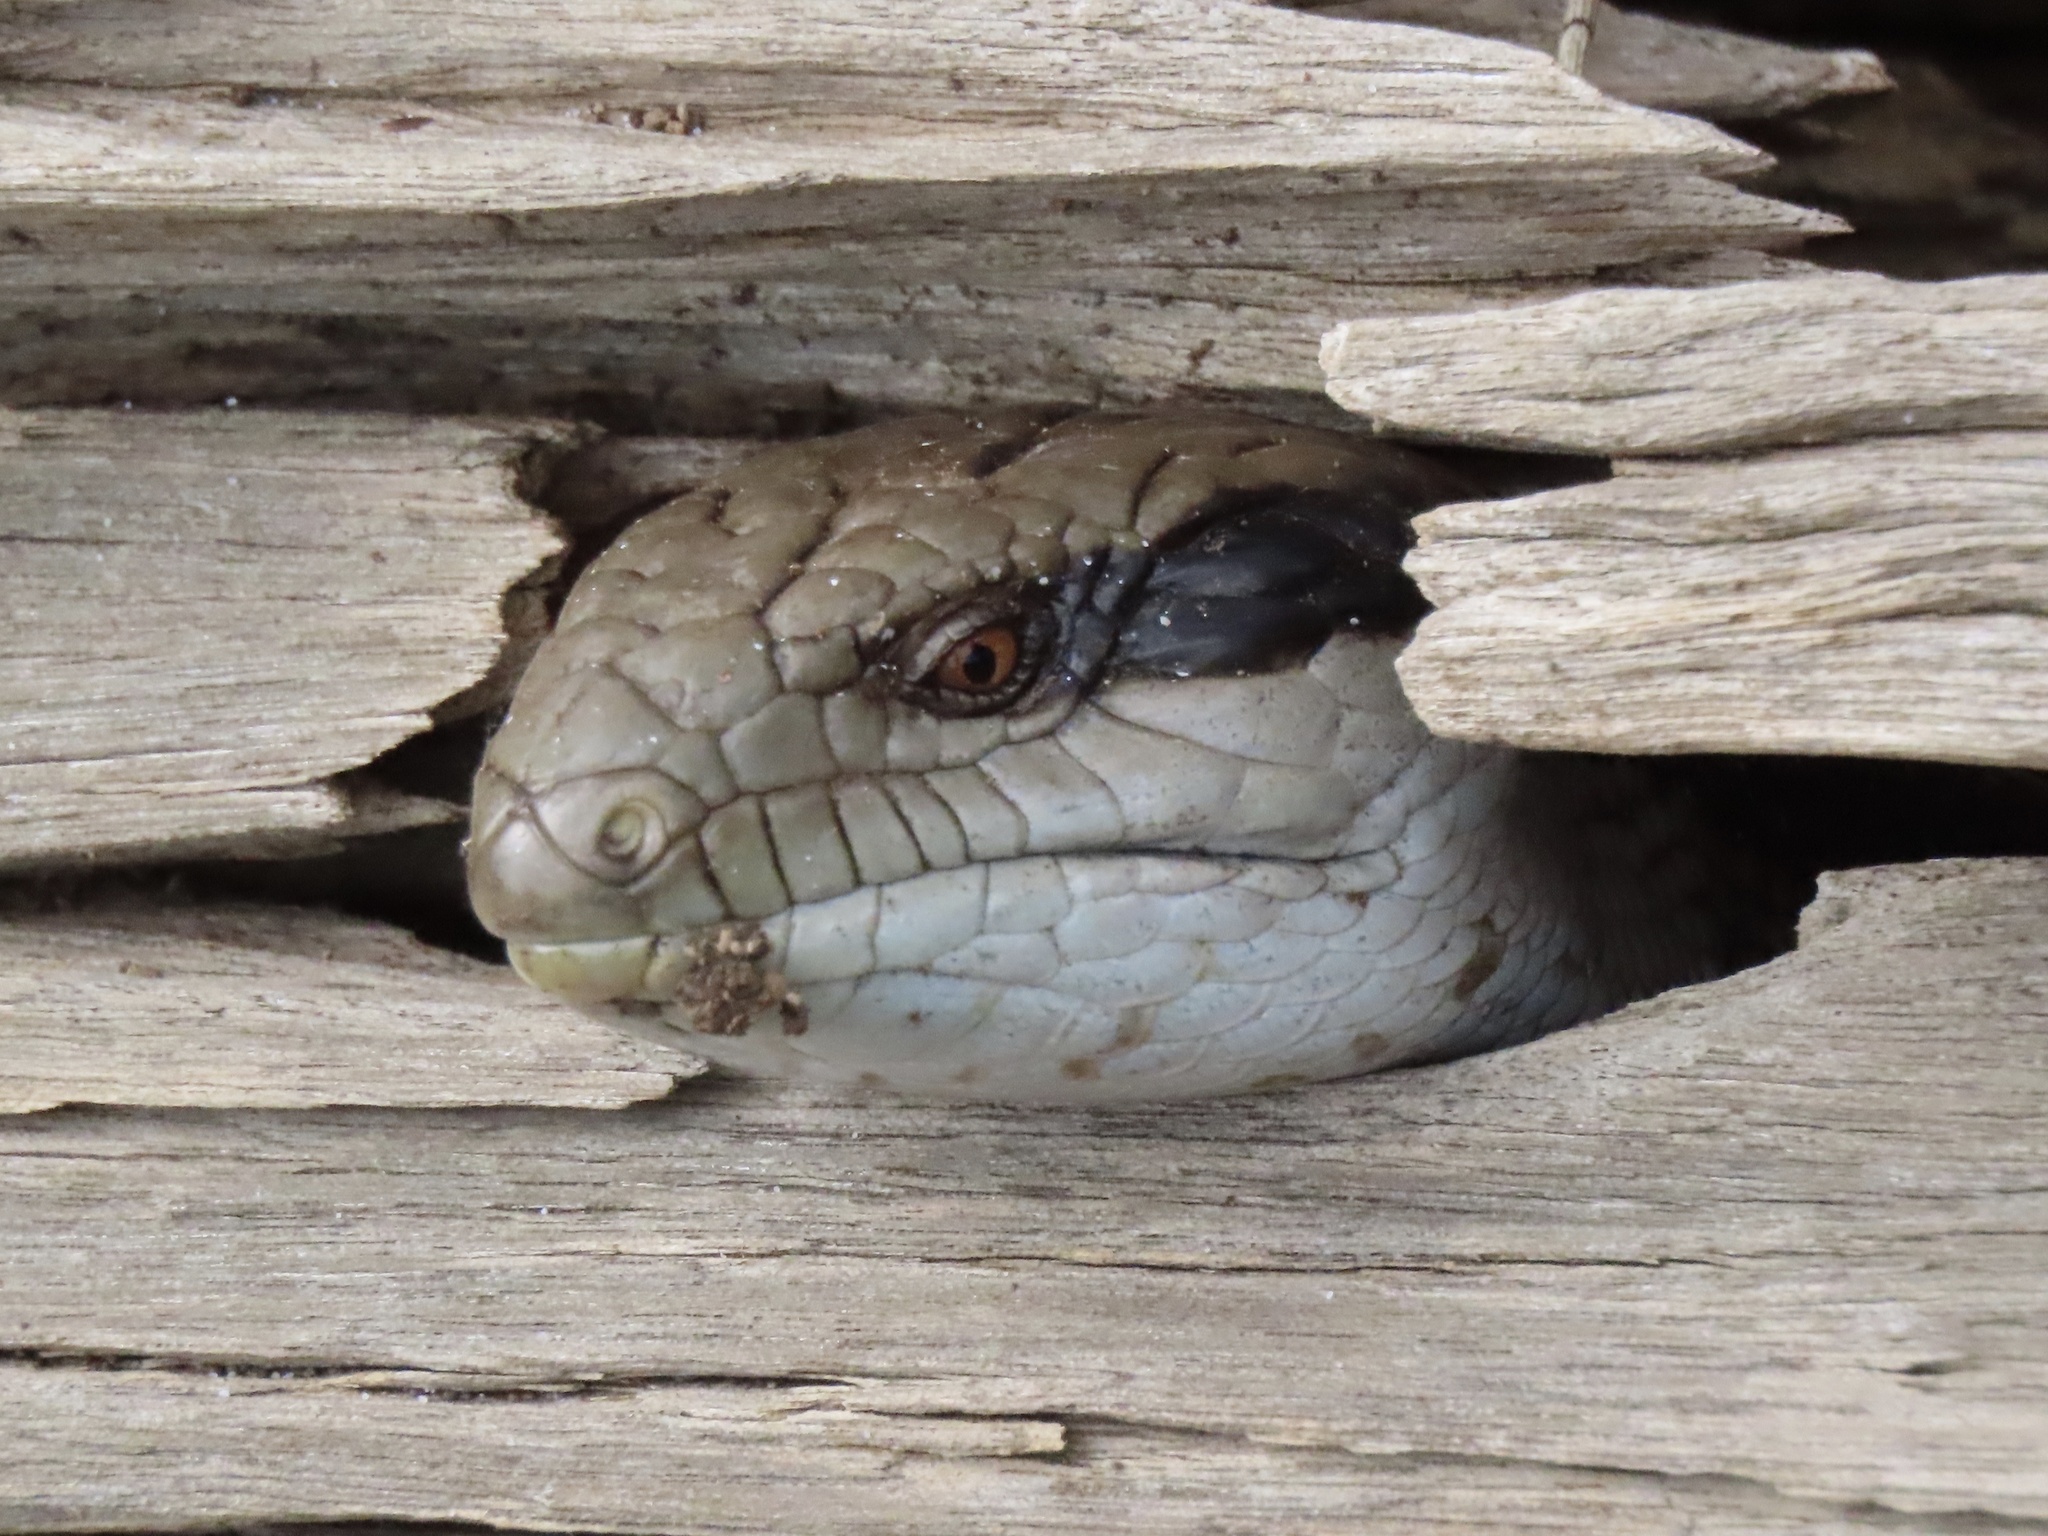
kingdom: Animalia
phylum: Chordata
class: Squamata
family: Scincidae
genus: Tiliqua
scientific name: Tiliqua scincoides
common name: Common bluetongue
